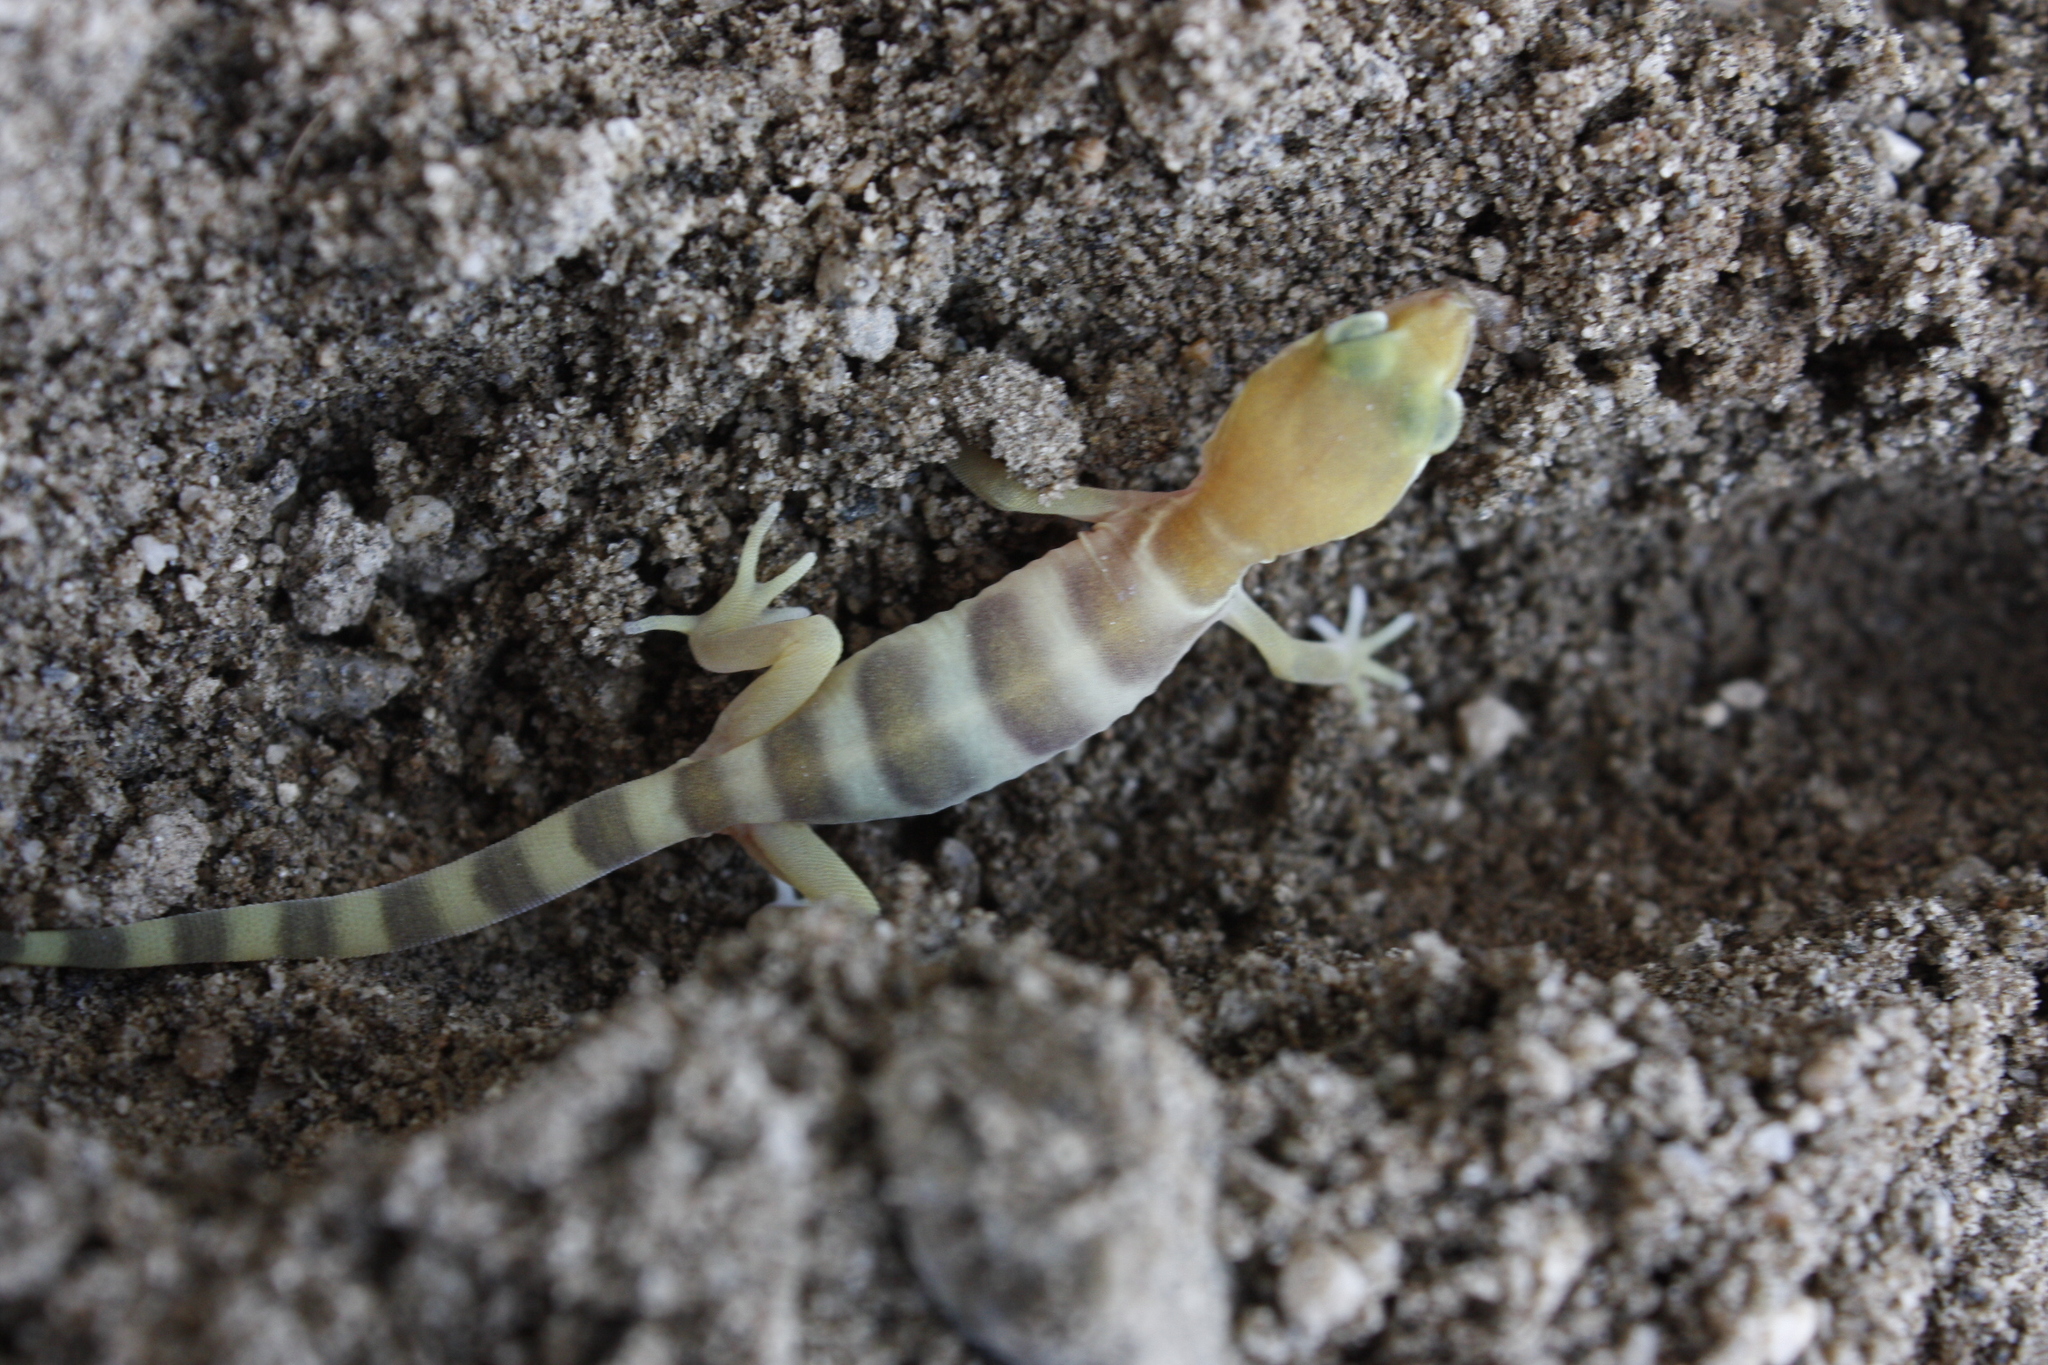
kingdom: Animalia
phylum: Chordata
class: Squamata
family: Eublepharidae
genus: Coleonyx
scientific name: Coleonyx variegatus
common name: Western banded gecko
